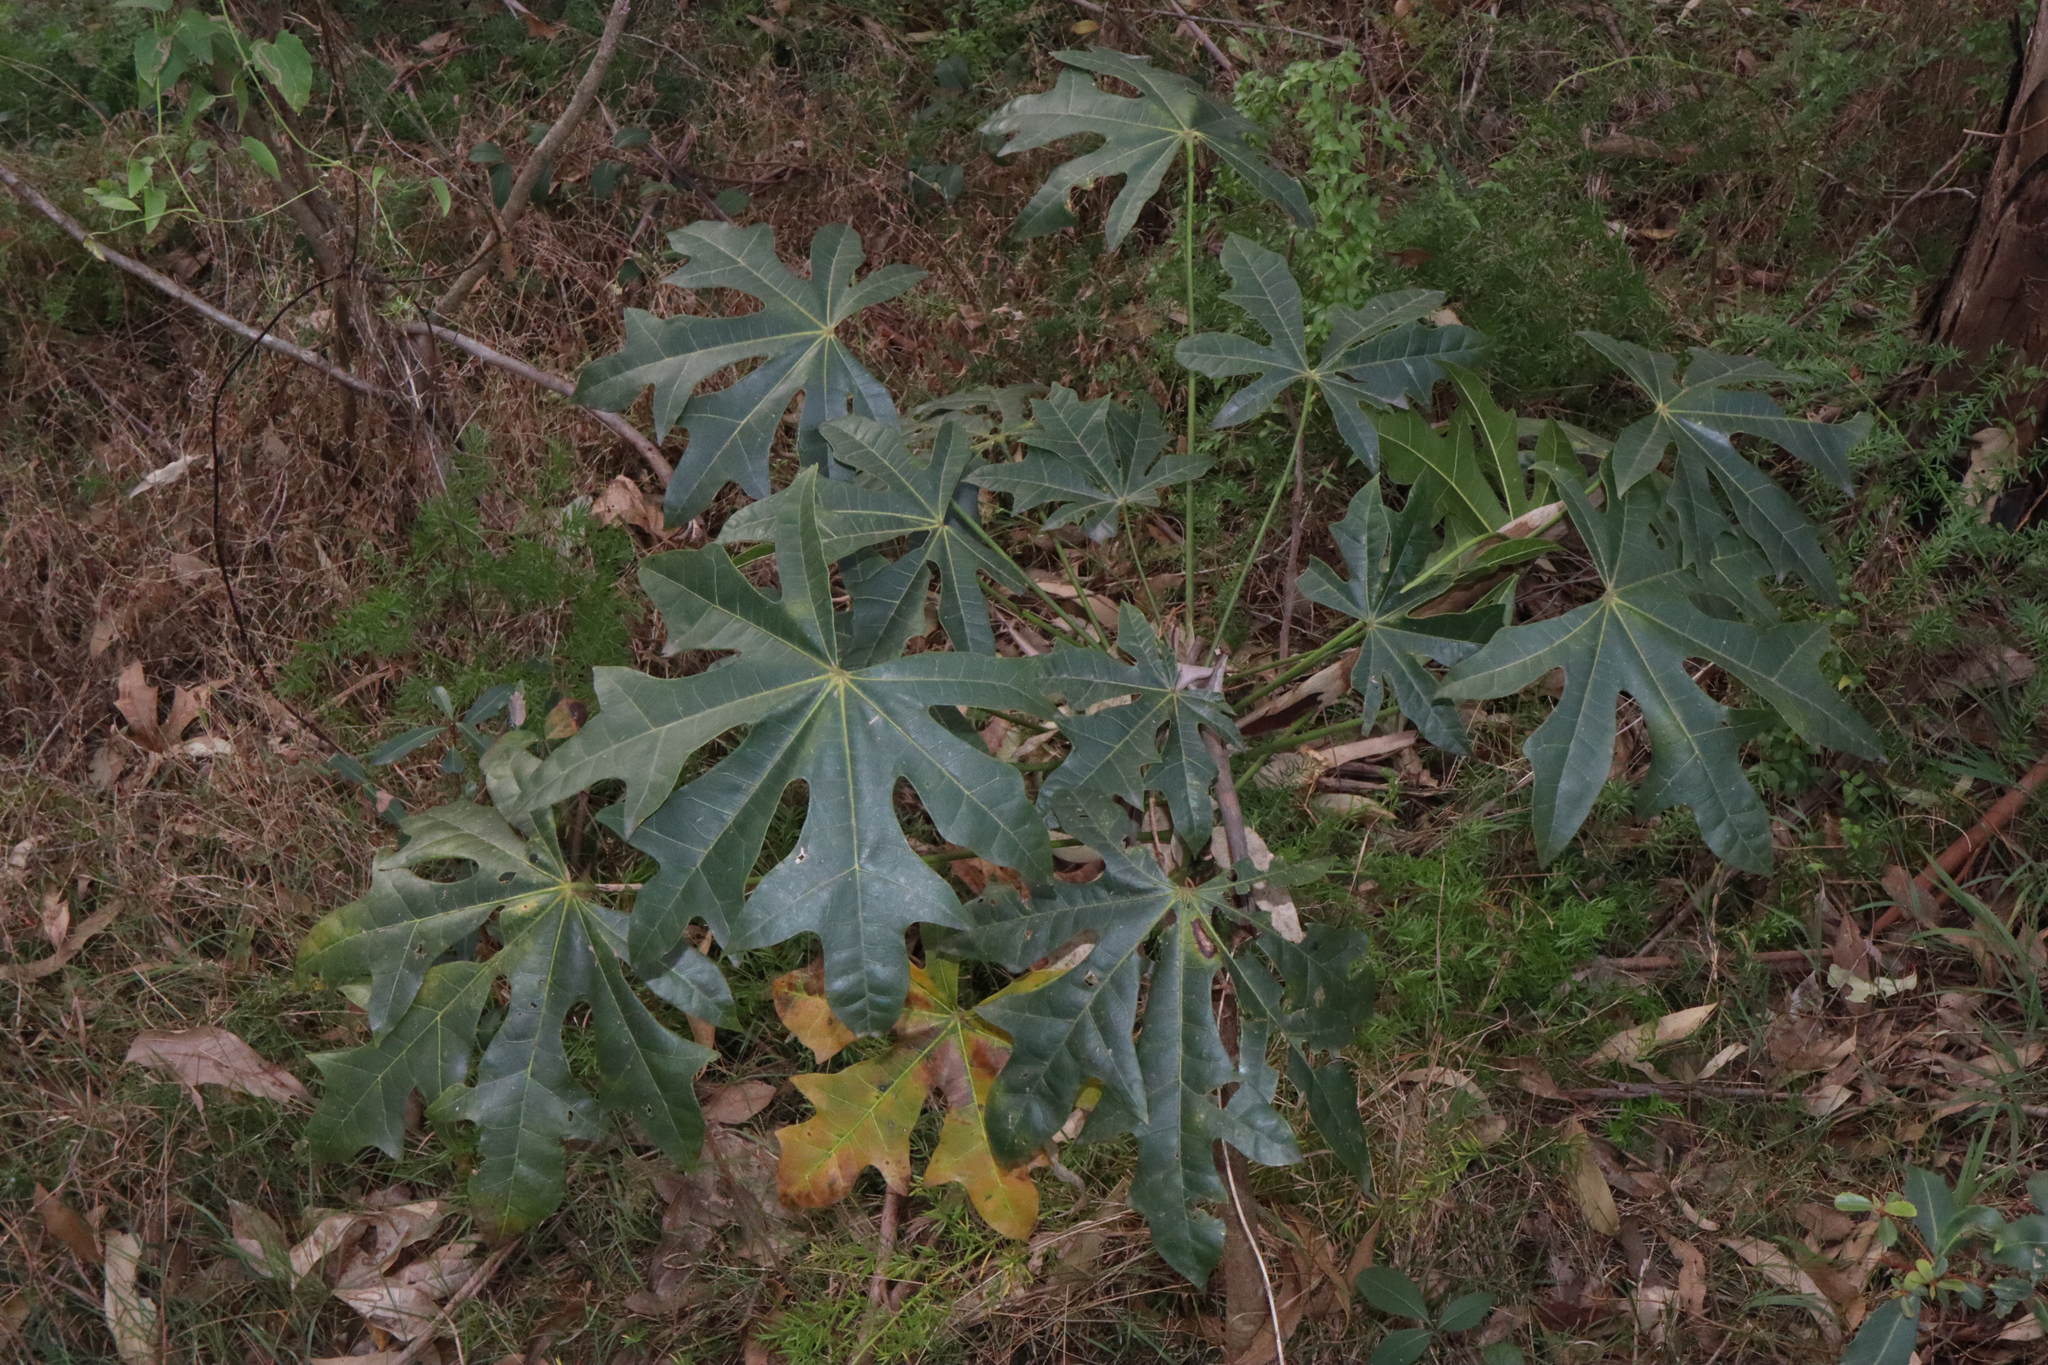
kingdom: Plantae
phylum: Tracheophyta
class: Magnoliopsida
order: Malvales
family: Malvaceae
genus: Brachychiton
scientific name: Brachychiton acerifolius
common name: Illawarra flame tree
